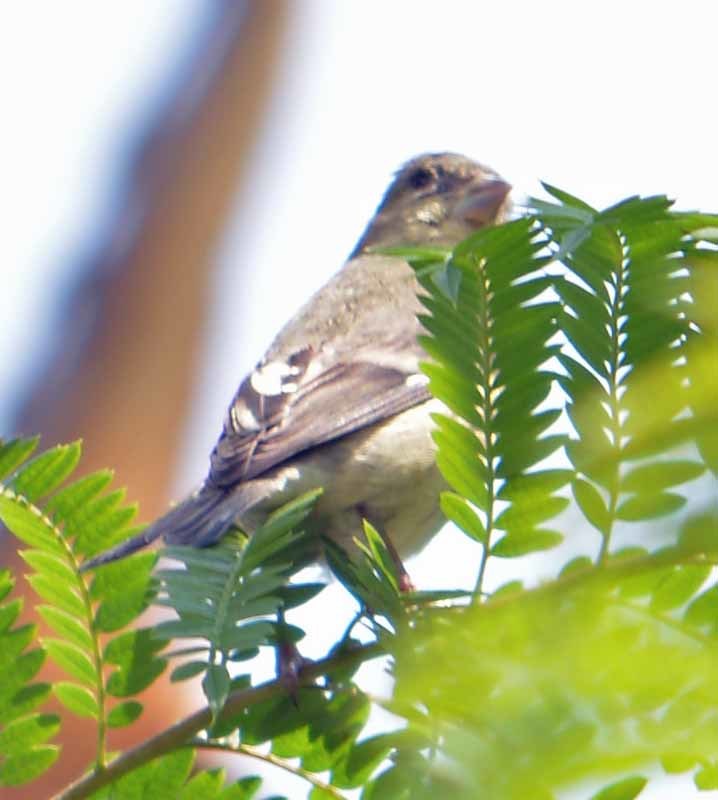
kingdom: Animalia
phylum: Chordata
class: Aves
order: Passeriformes
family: Fringillidae
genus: Spinus
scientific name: Spinus psaltria
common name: Lesser goldfinch
